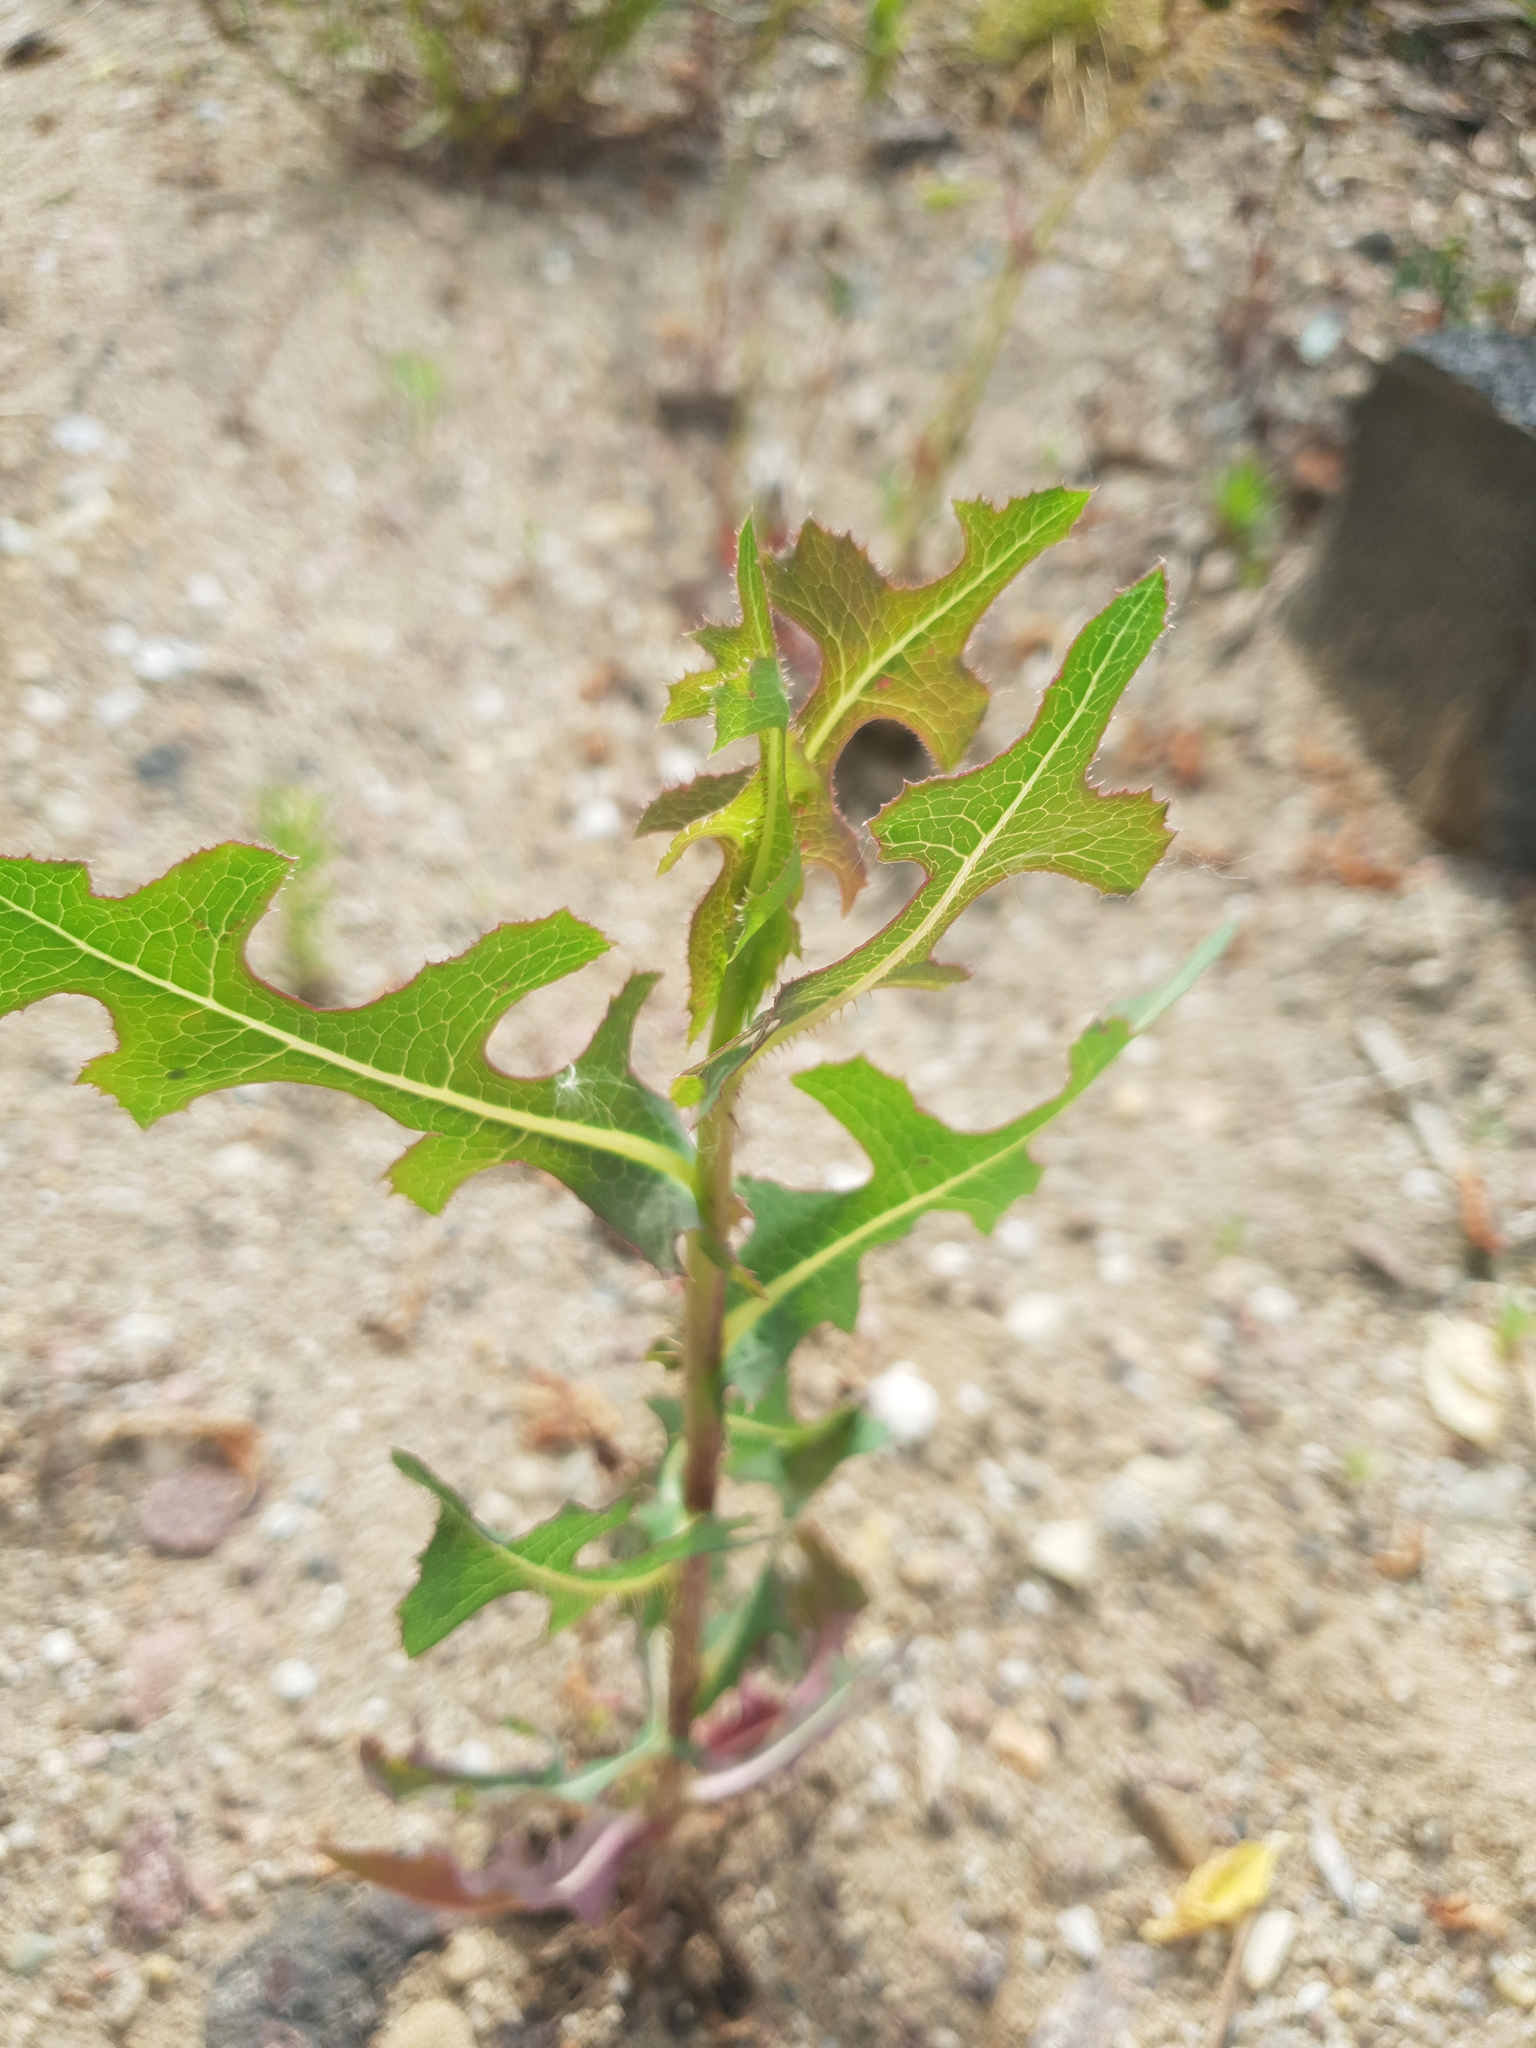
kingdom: Plantae
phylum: Tracheophyta
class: Magnoliopsida
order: Asterales
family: Asteraceae
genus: Lactuca
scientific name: Lactuca serriola
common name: Prickly lettuce
